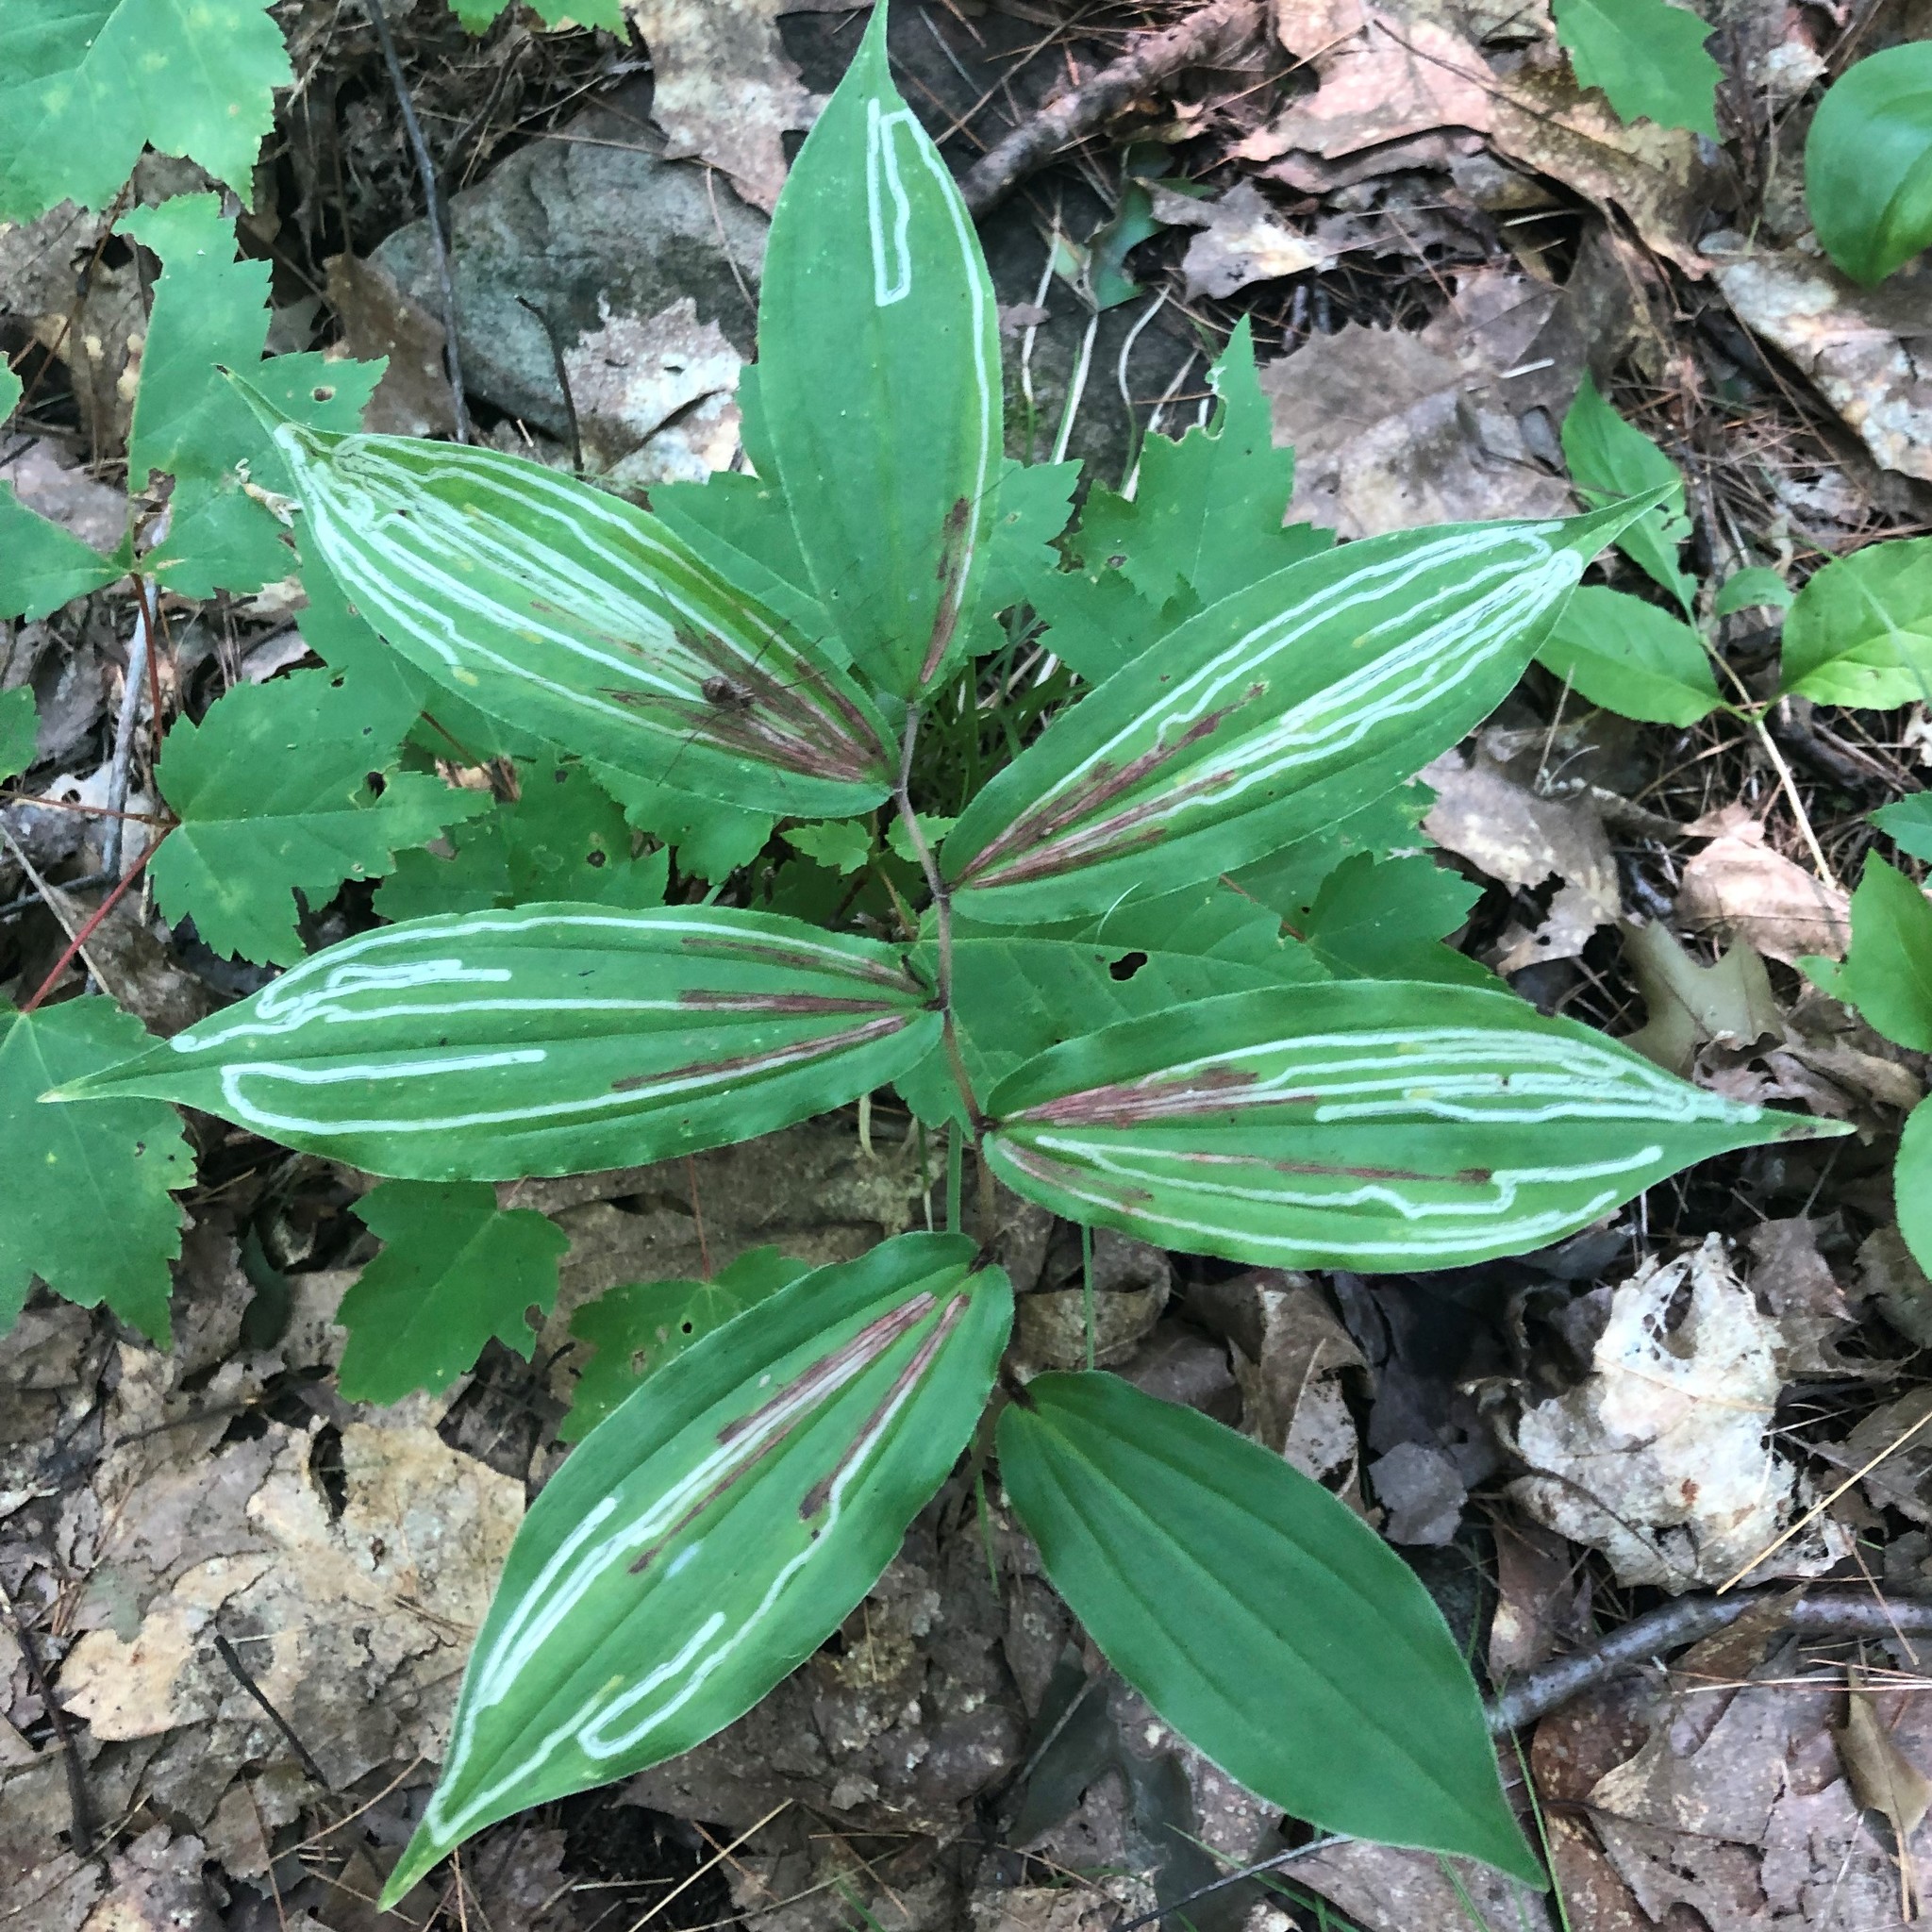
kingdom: Plantae
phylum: Tracheophyta
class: Liliopsida
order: Asparagales
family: Asparagaceae
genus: Maianthemum
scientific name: Maianthemum racemosum
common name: False spikenard
